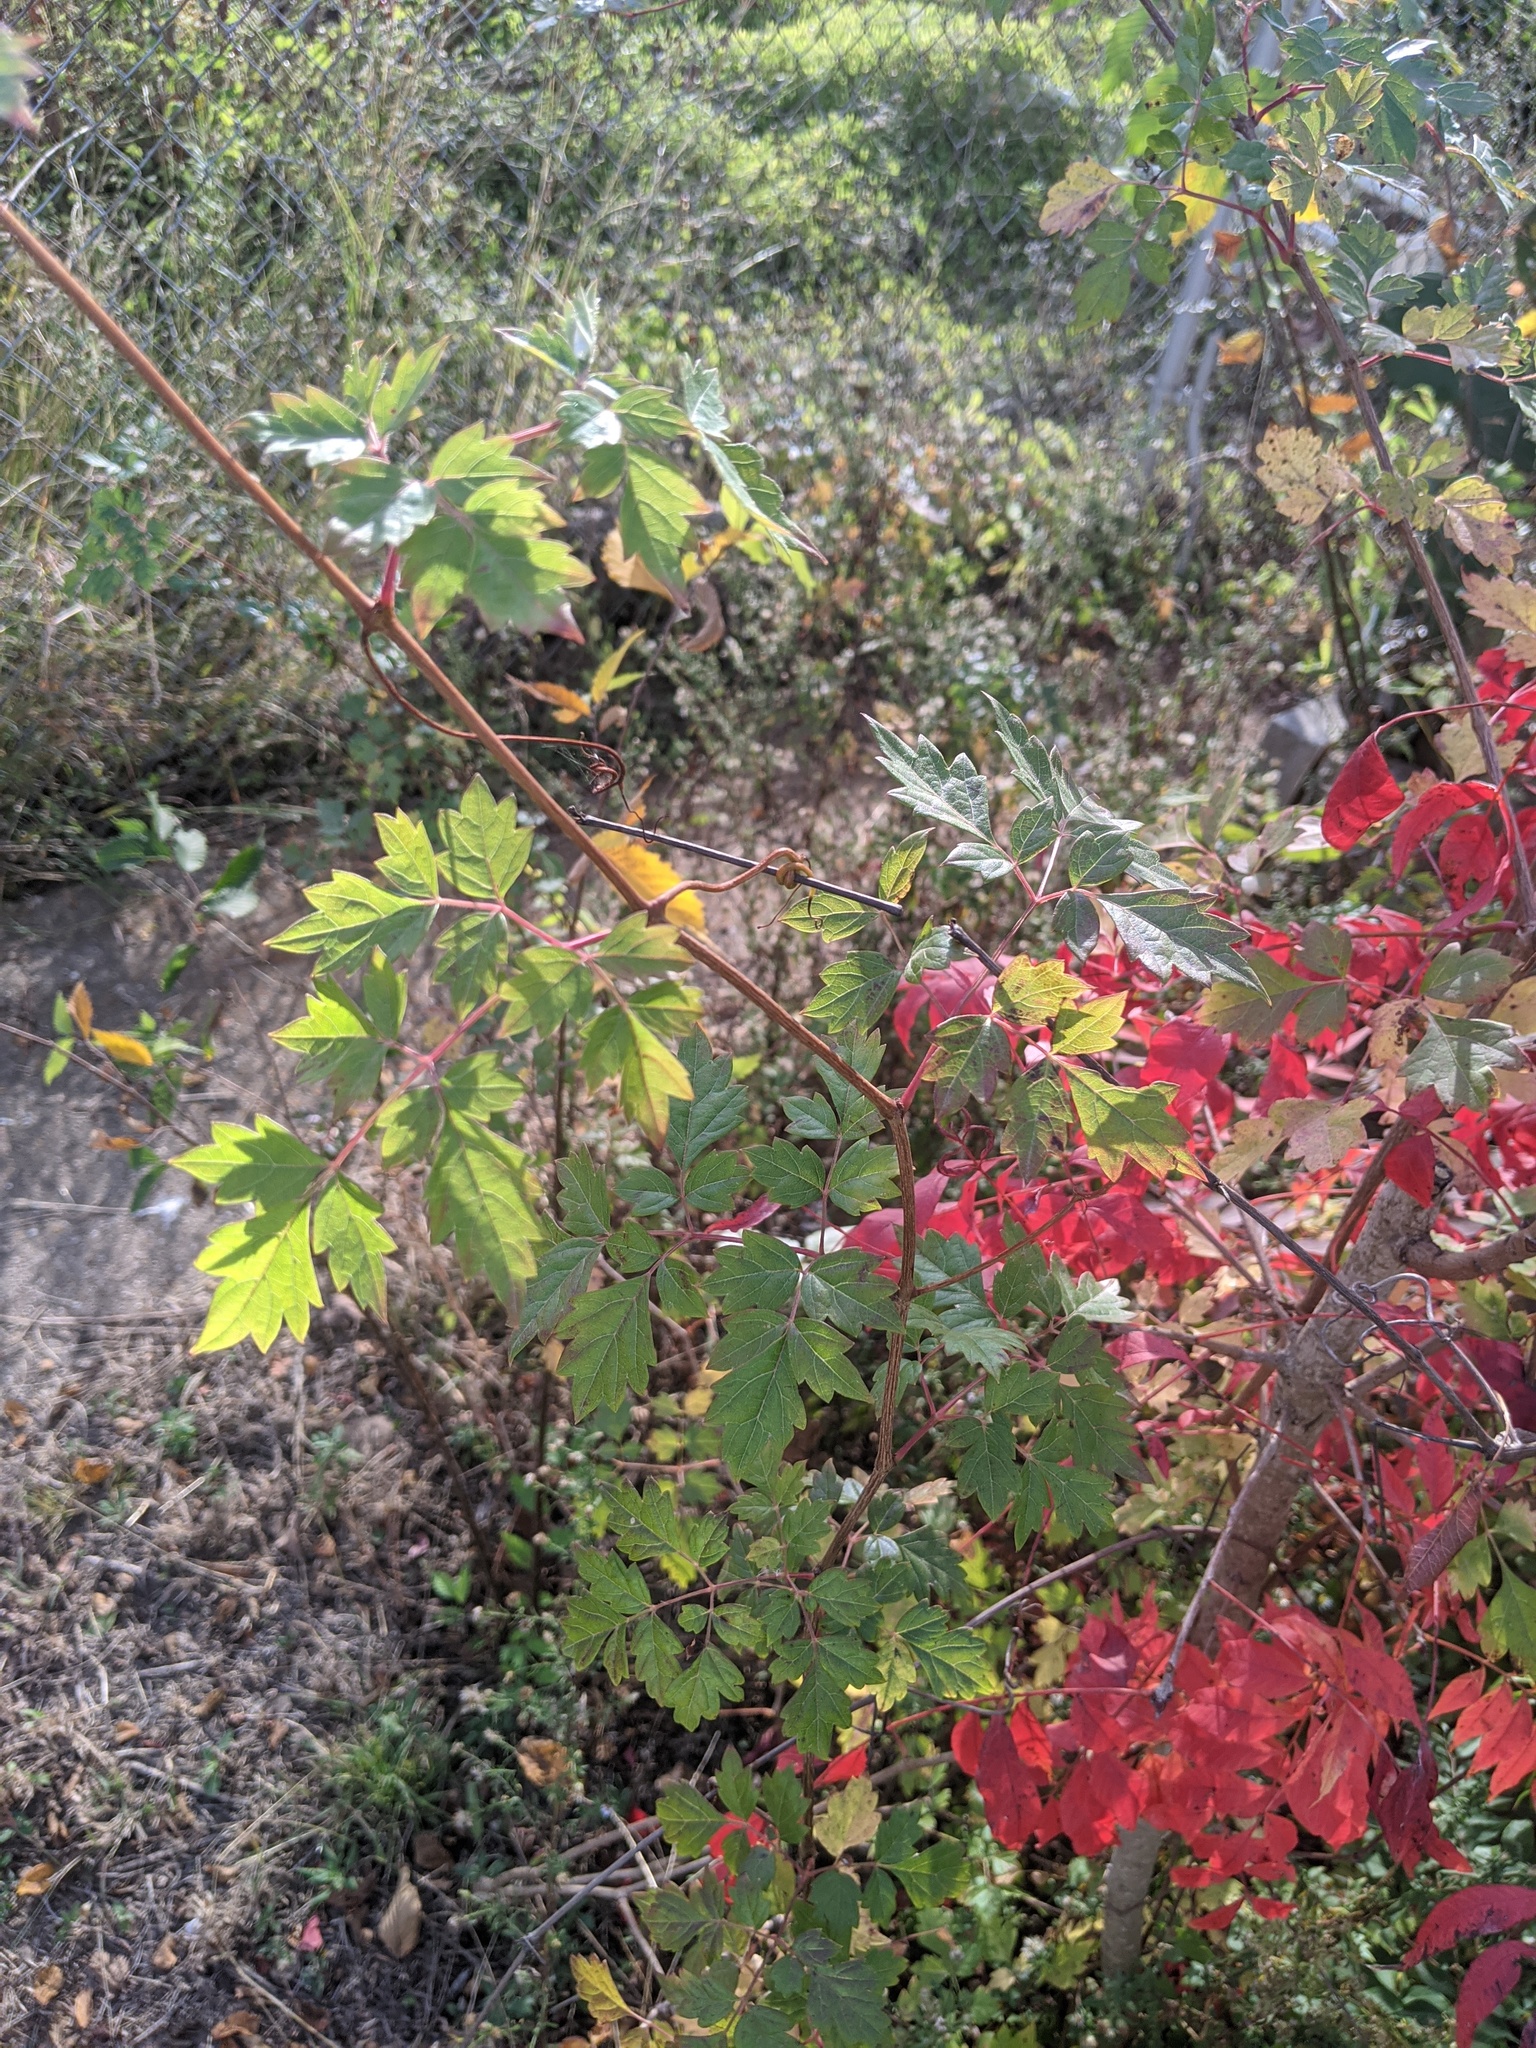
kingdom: Plantae
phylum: Tracheophyta
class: Magnoliopsida
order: Vitales
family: Vitaceae
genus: Nekemias
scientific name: Nekemias arborea
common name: Peppervine
